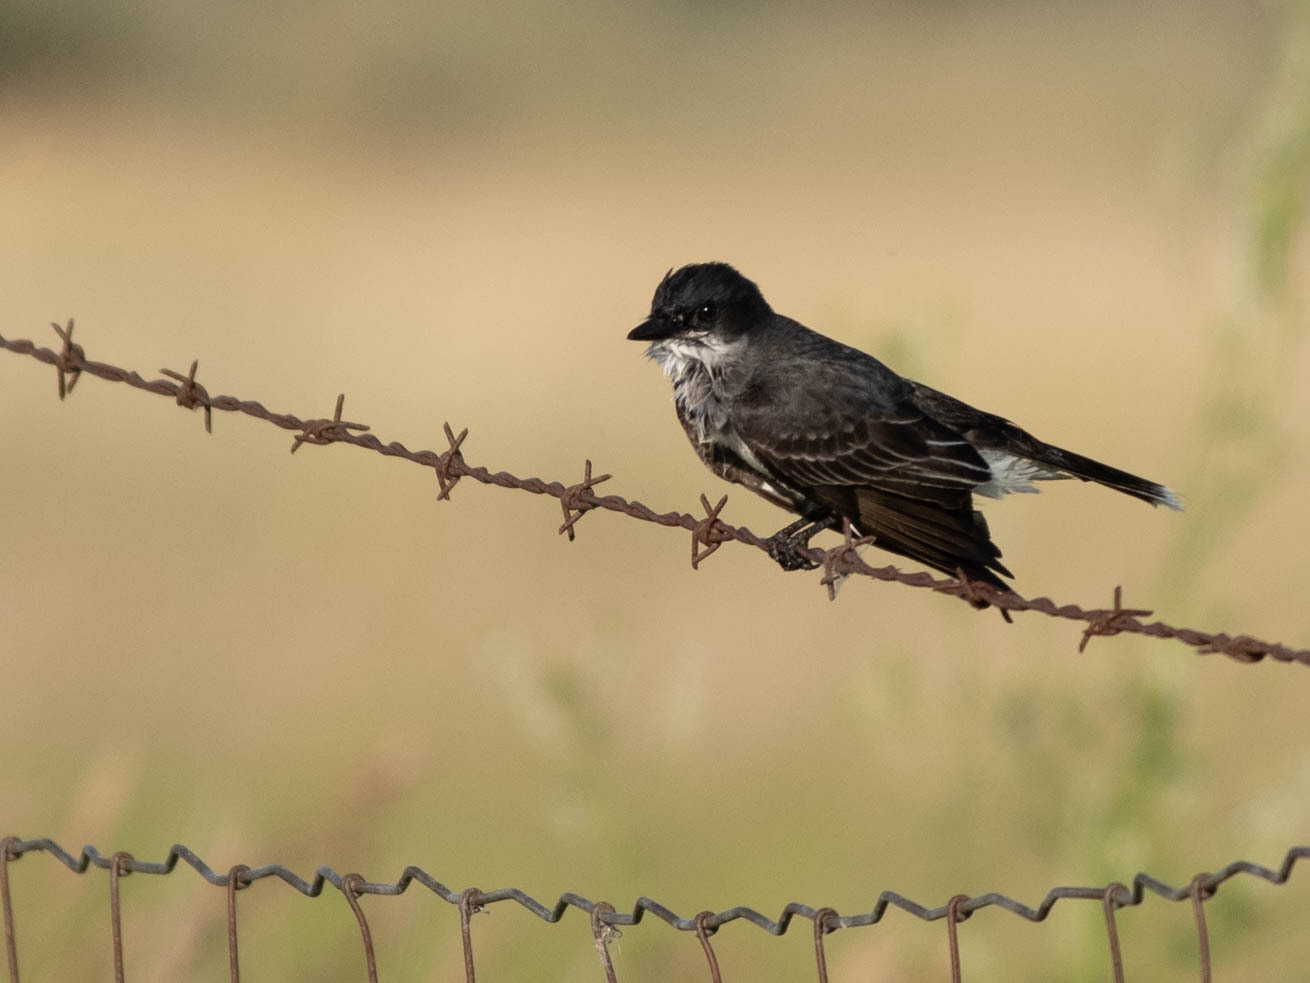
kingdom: Animalia
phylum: Chordata
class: Aves
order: Passeriformes
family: Tyrannidae
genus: Tyrannus
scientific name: Tyrannus tyrannus
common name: Eastern kingbird
